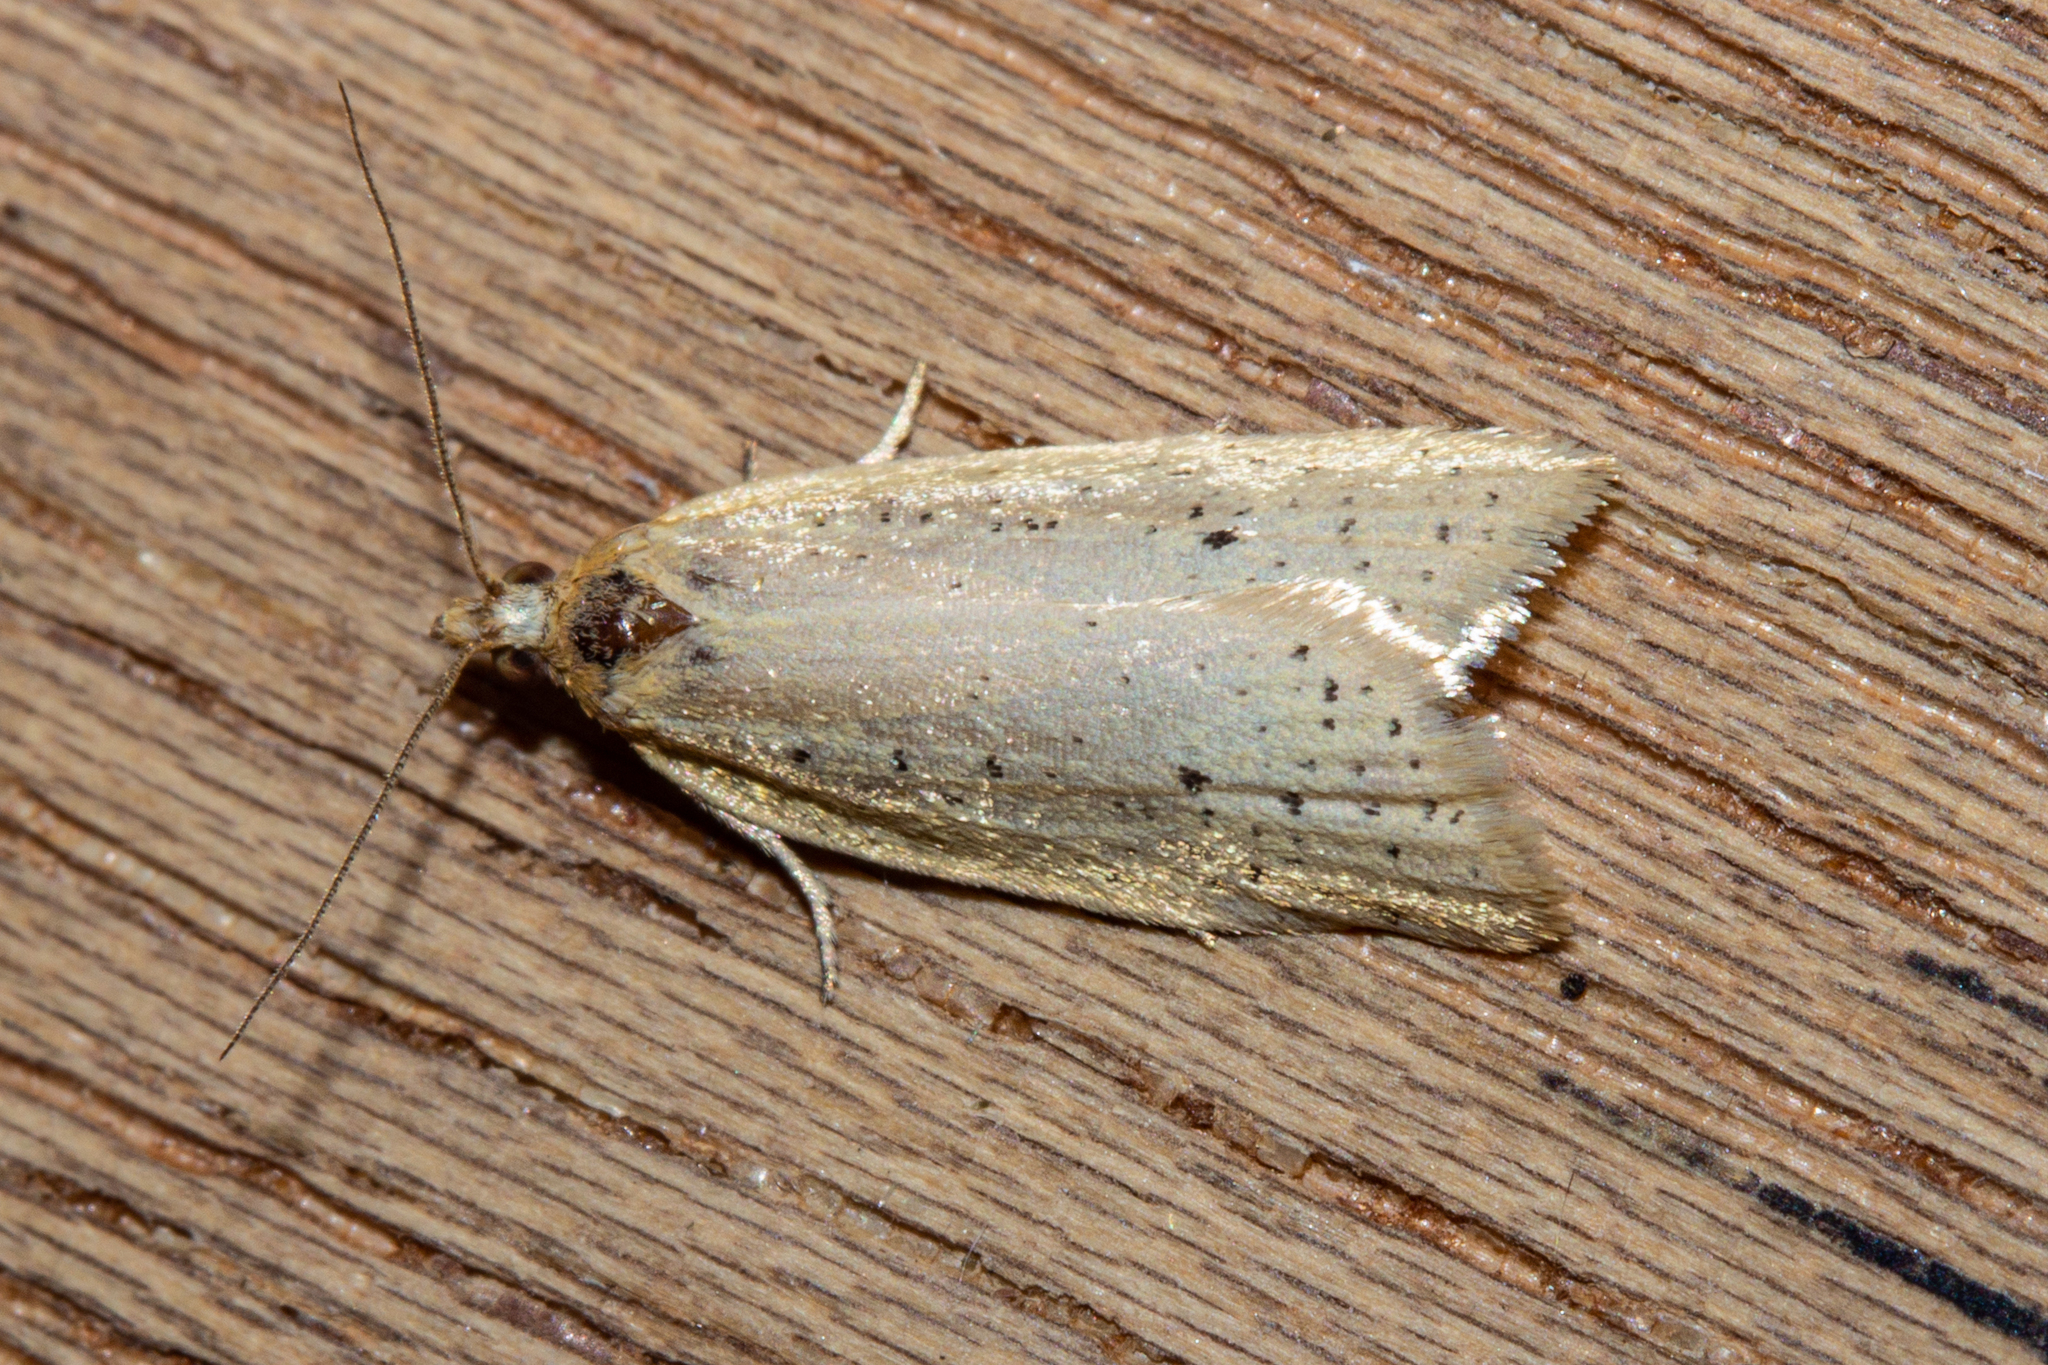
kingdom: Animalia
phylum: Arthropoda
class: Insecta
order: Lepidoptera
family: Tortricidae
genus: Clepsis
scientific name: Clepsis
